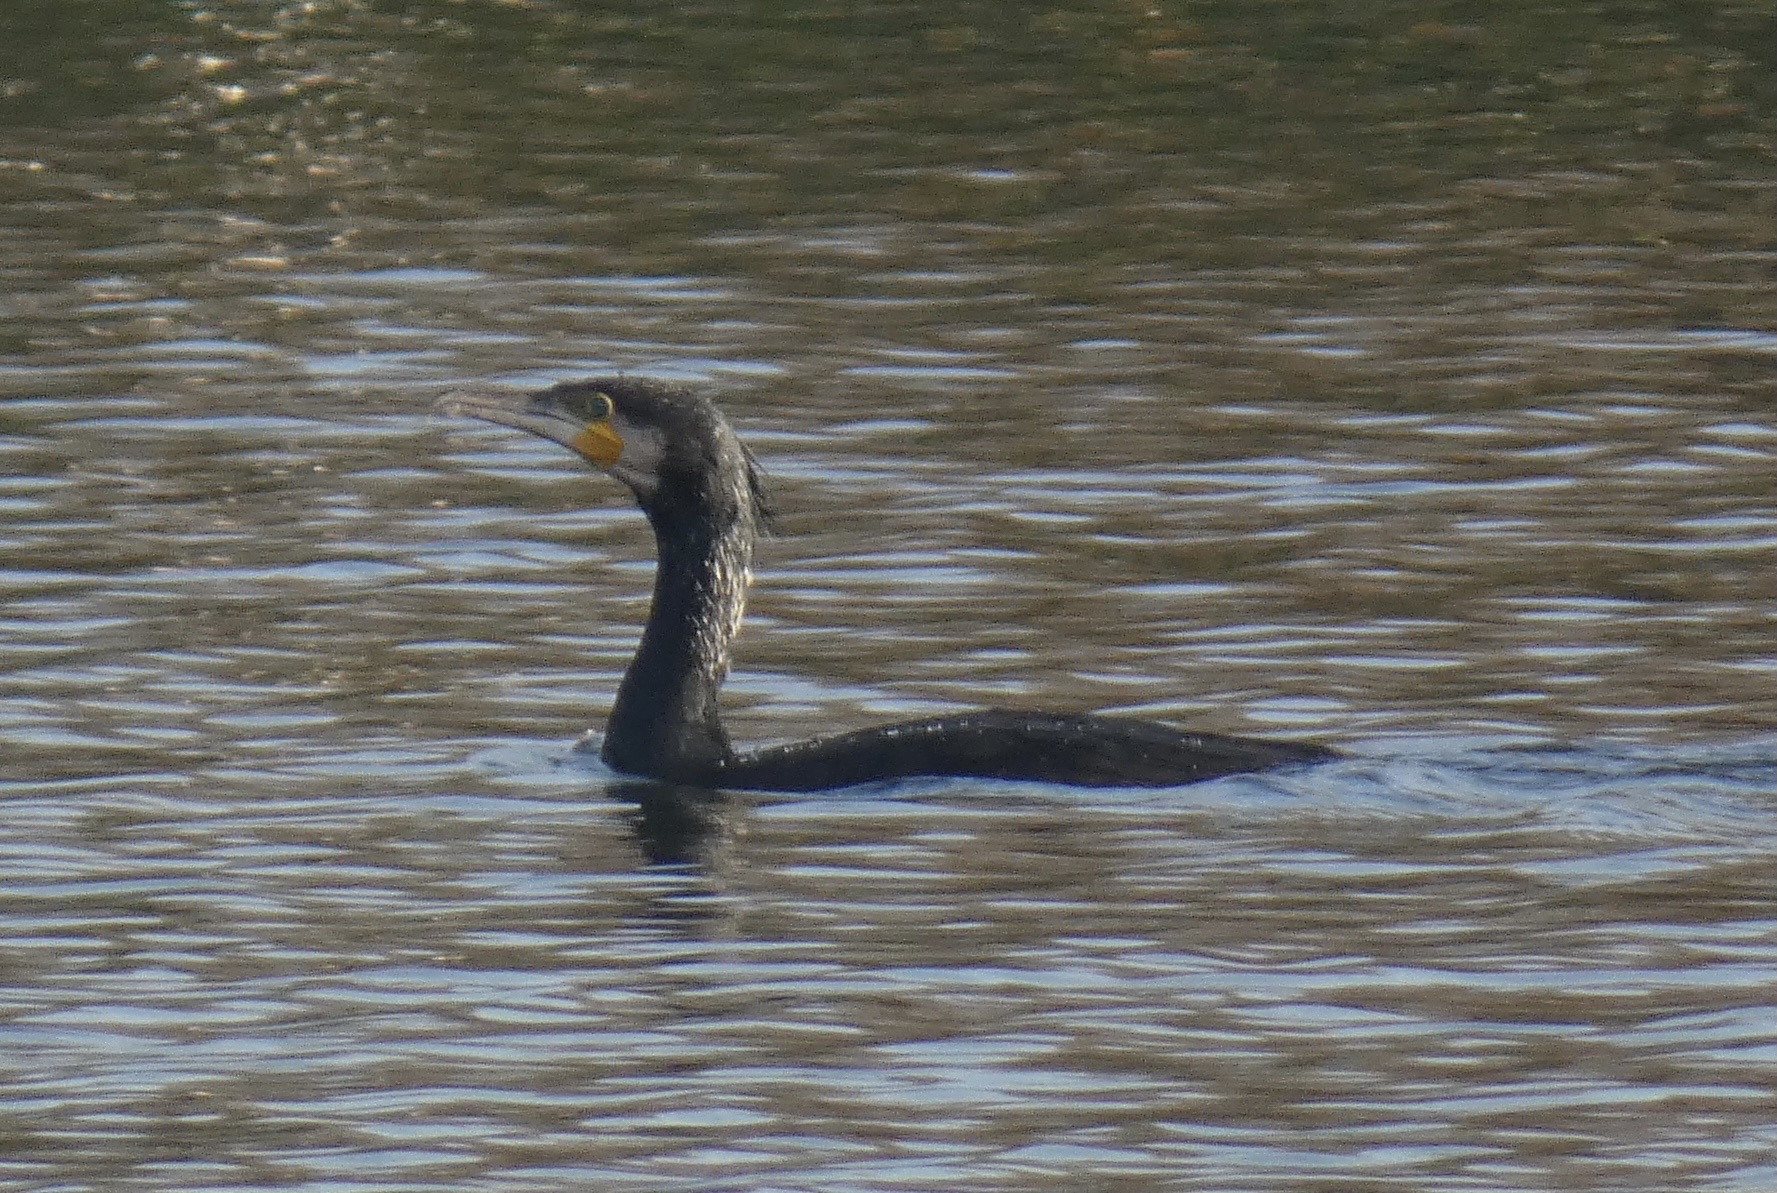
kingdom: Animalia
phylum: Chordata
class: Aves
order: Suliformes
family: Phalacrocoracidae
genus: Phalacrocorax
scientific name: Phalacrocorax carbo
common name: Great cormorant
